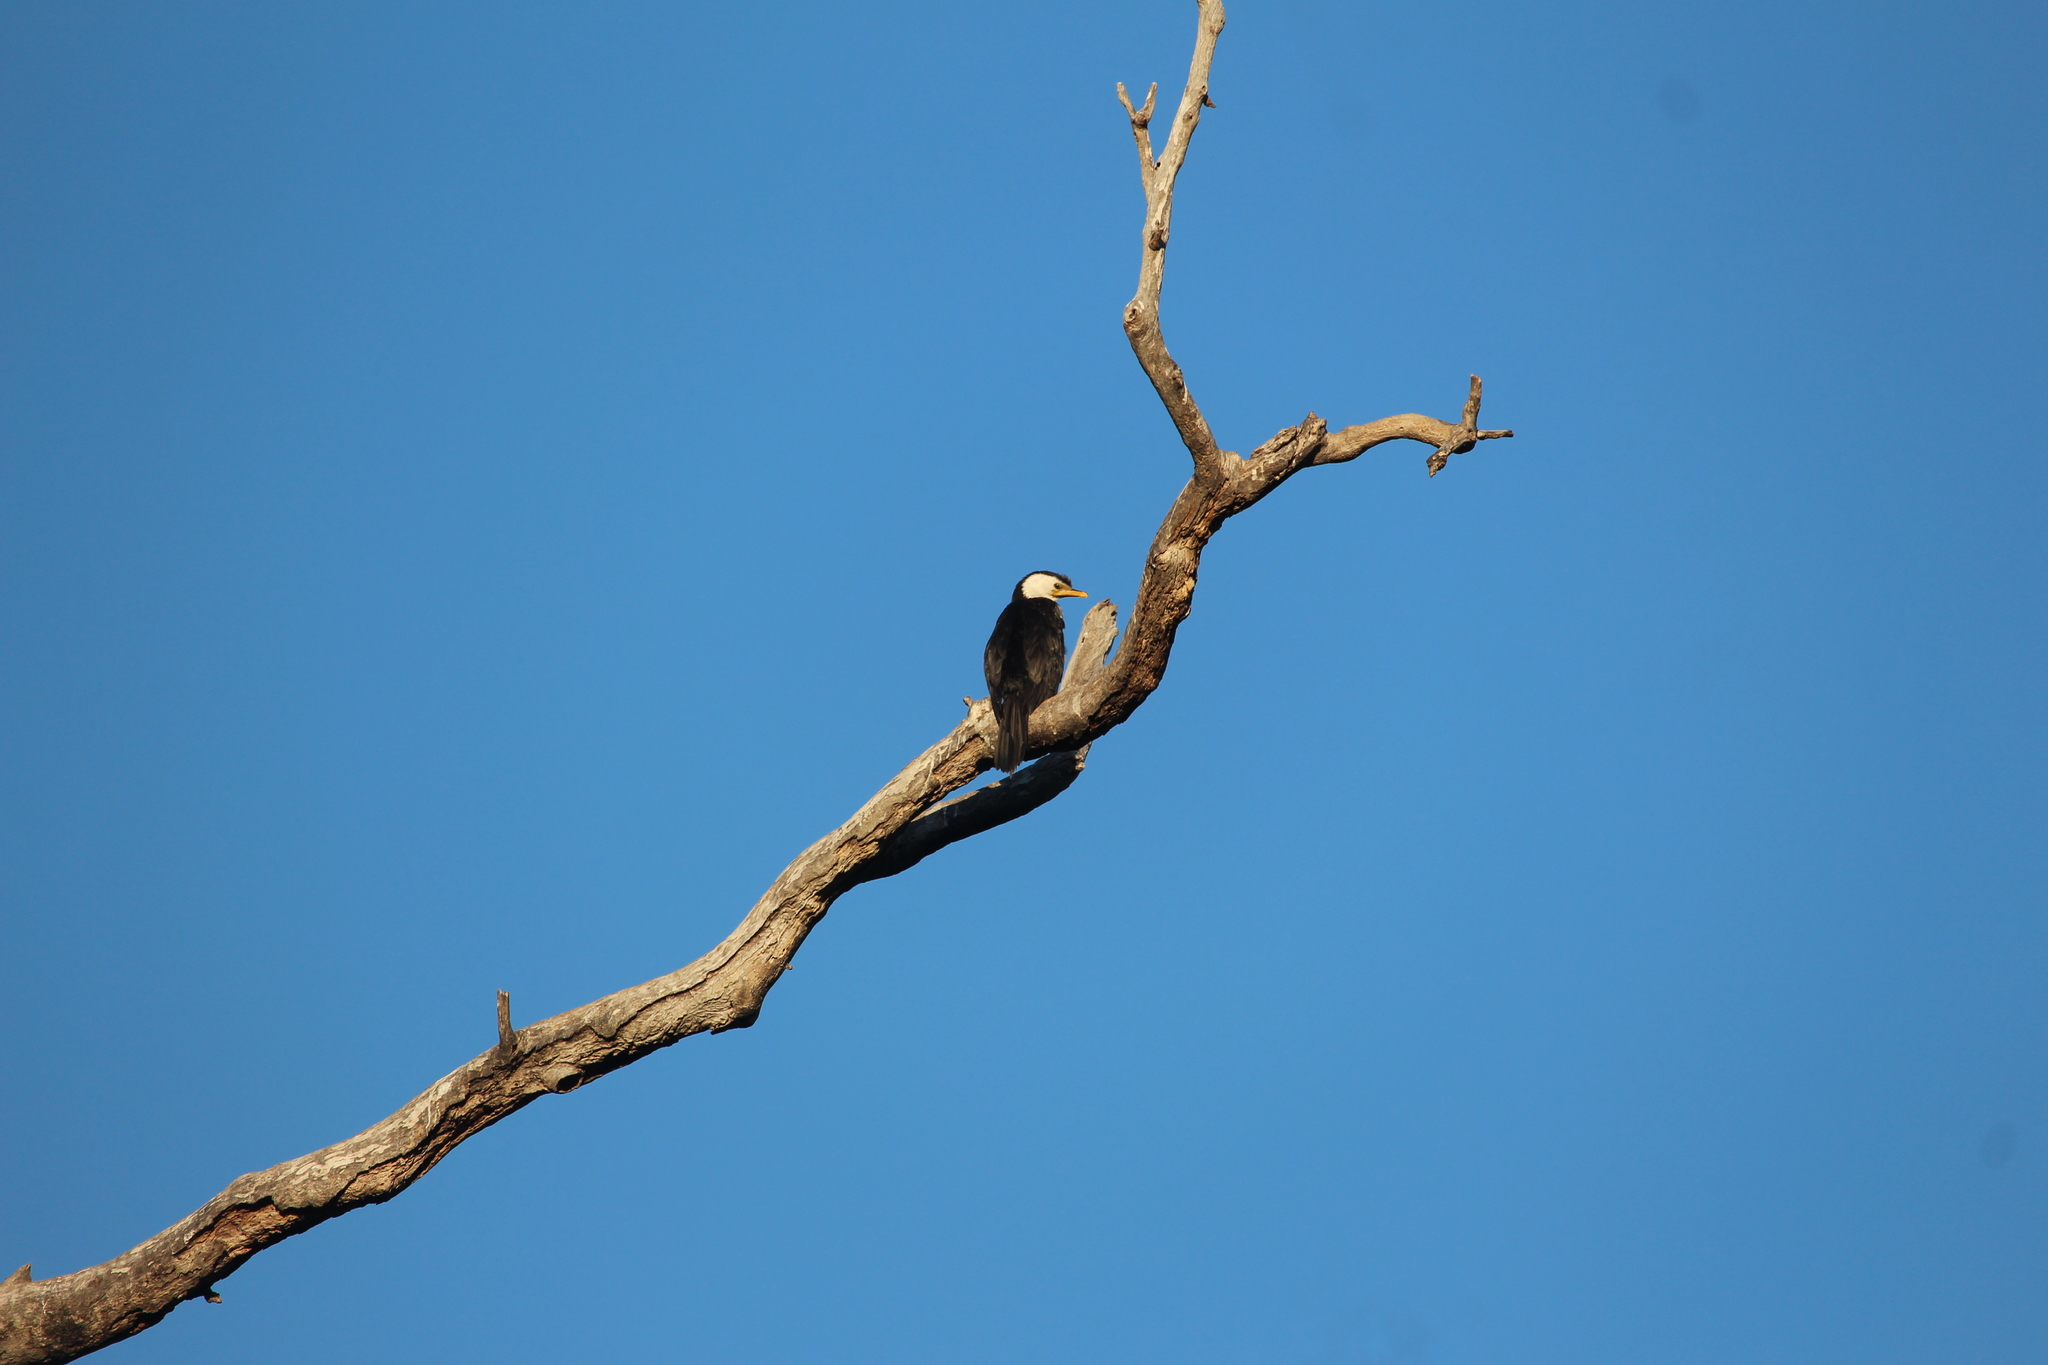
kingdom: Animalia
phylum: Chordata
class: Aves
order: Suliformes
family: Phalacrocoracidae
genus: Microcarbo
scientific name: Microcarbo melanoleucos
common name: Little pied cormorant
